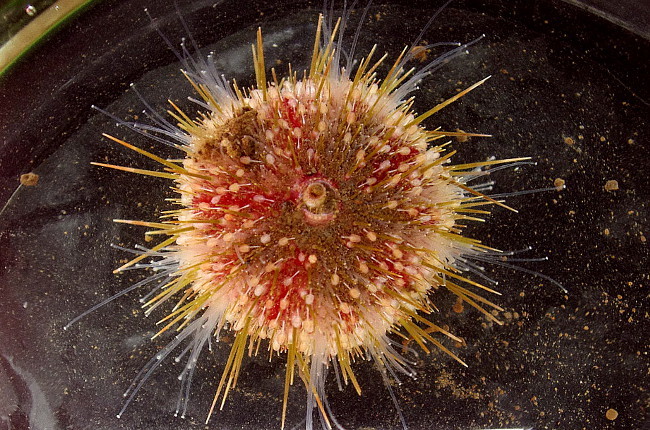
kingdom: Animalia
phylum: Echinodermata
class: Echinoidea
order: Camarodonta
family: Strongylocentrotidae
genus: Strongylocentrotus
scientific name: Strongylocentrotus pallidus
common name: White sea urchin
